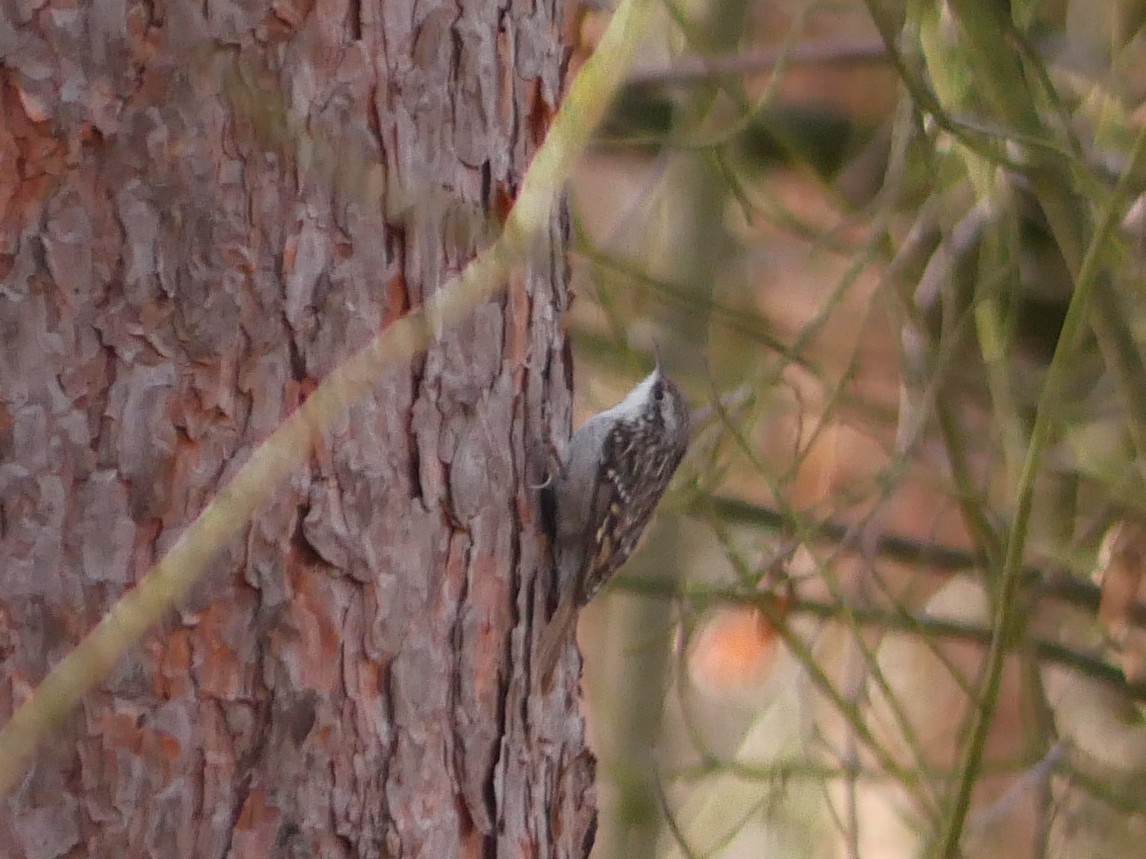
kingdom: Animalia
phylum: Chordata
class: Aves
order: Passeriformes
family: Certhiidae
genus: Certhia
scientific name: Certhia brachydactyla
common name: Short-toed treecreeper
